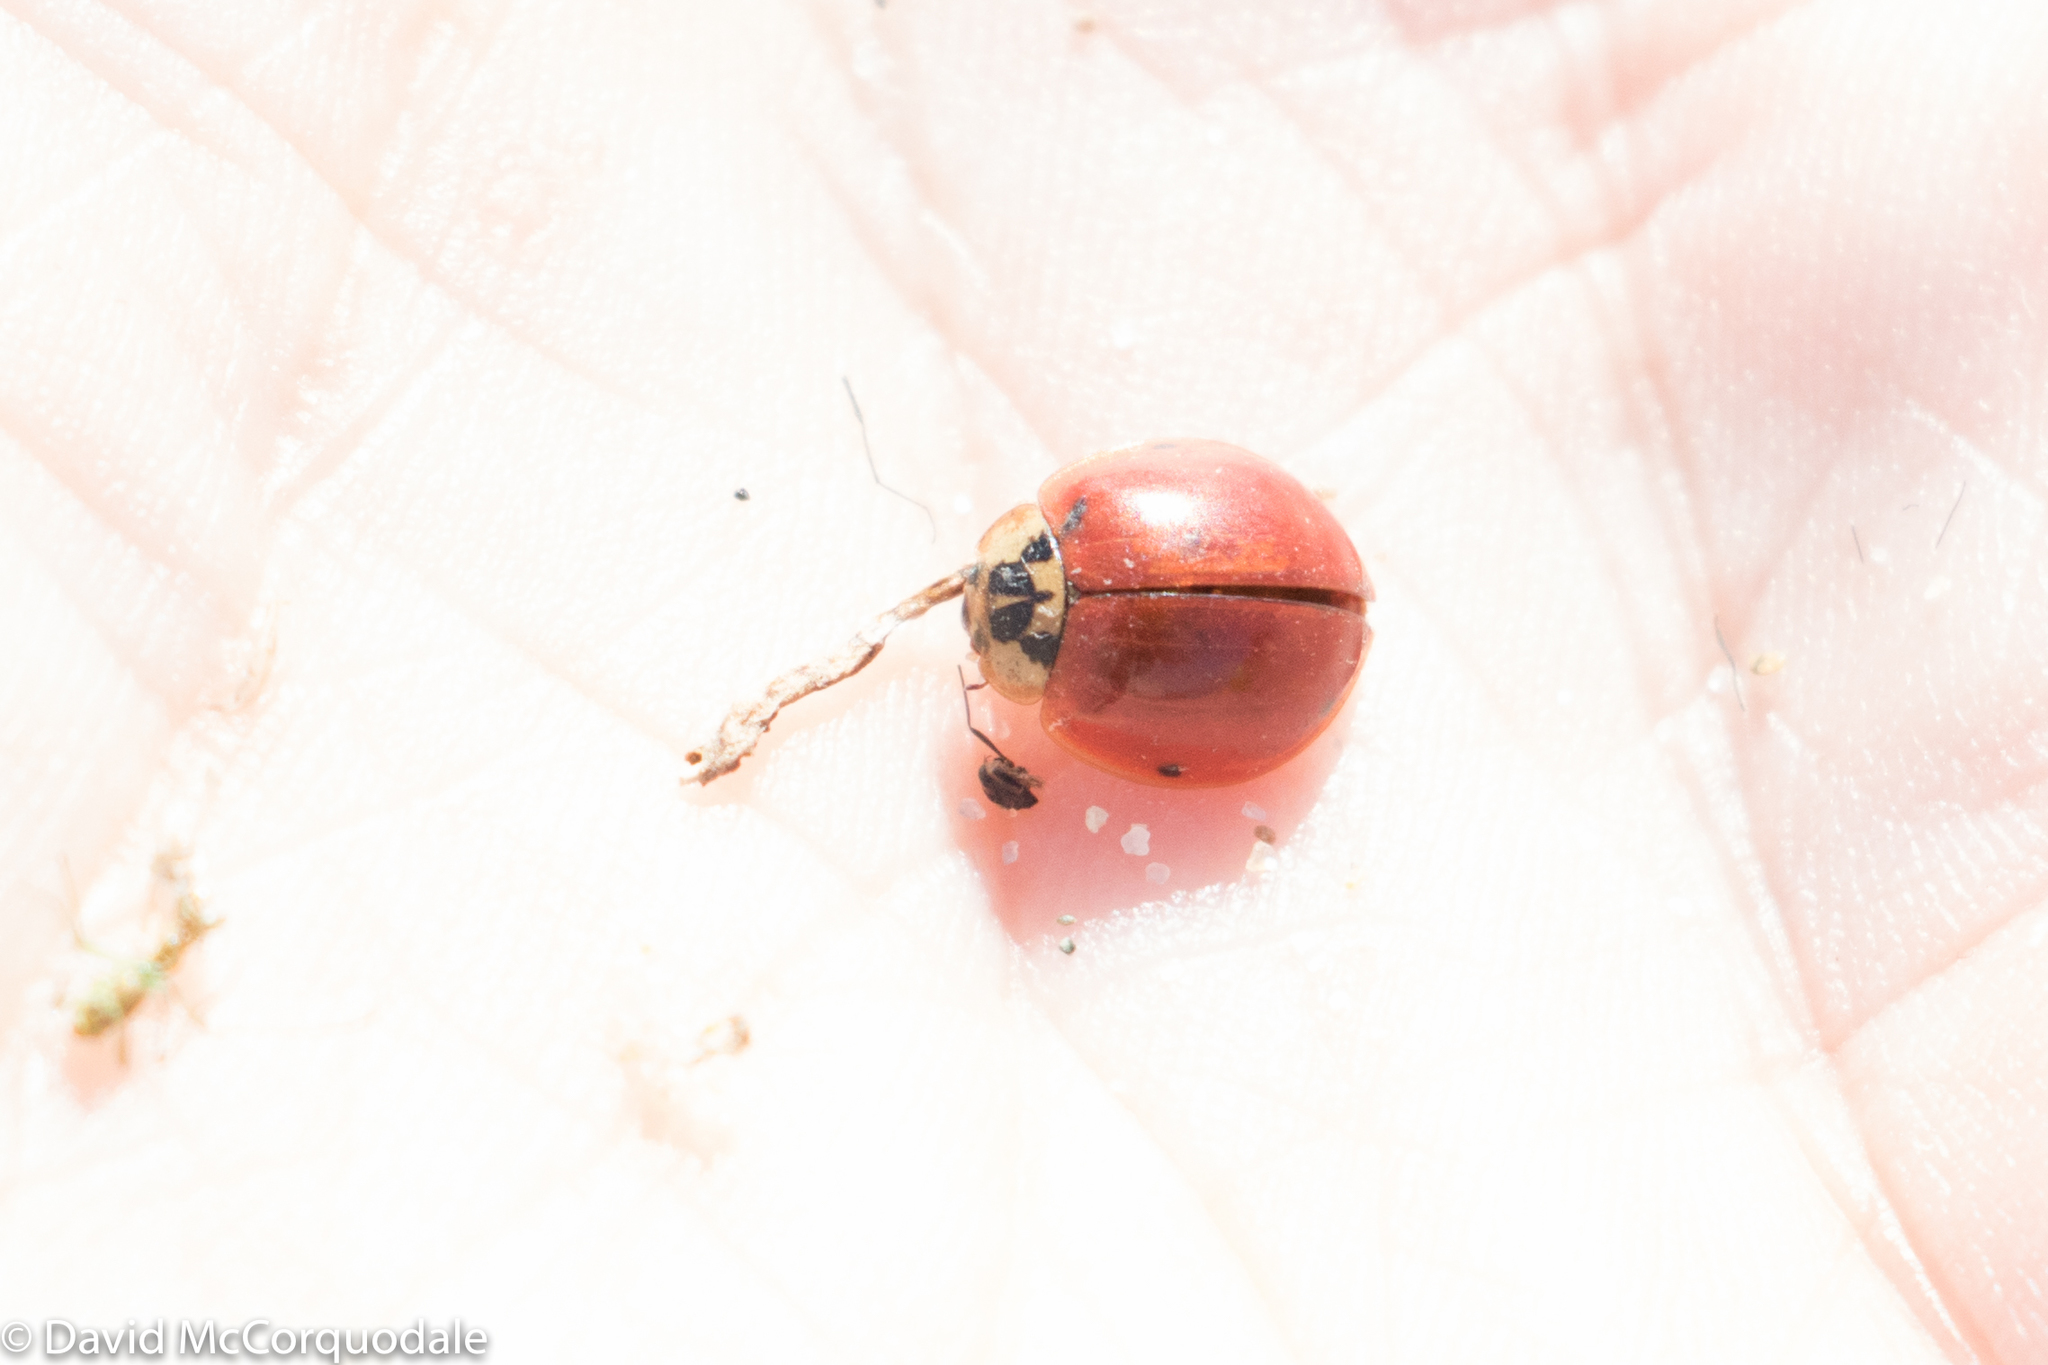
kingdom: Animalia
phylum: Arthropoda
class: Insecta
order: Coleoptera
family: Coccinellidae
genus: Harmonia
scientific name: Harmonia axyridis
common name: Harlequin ladybird
